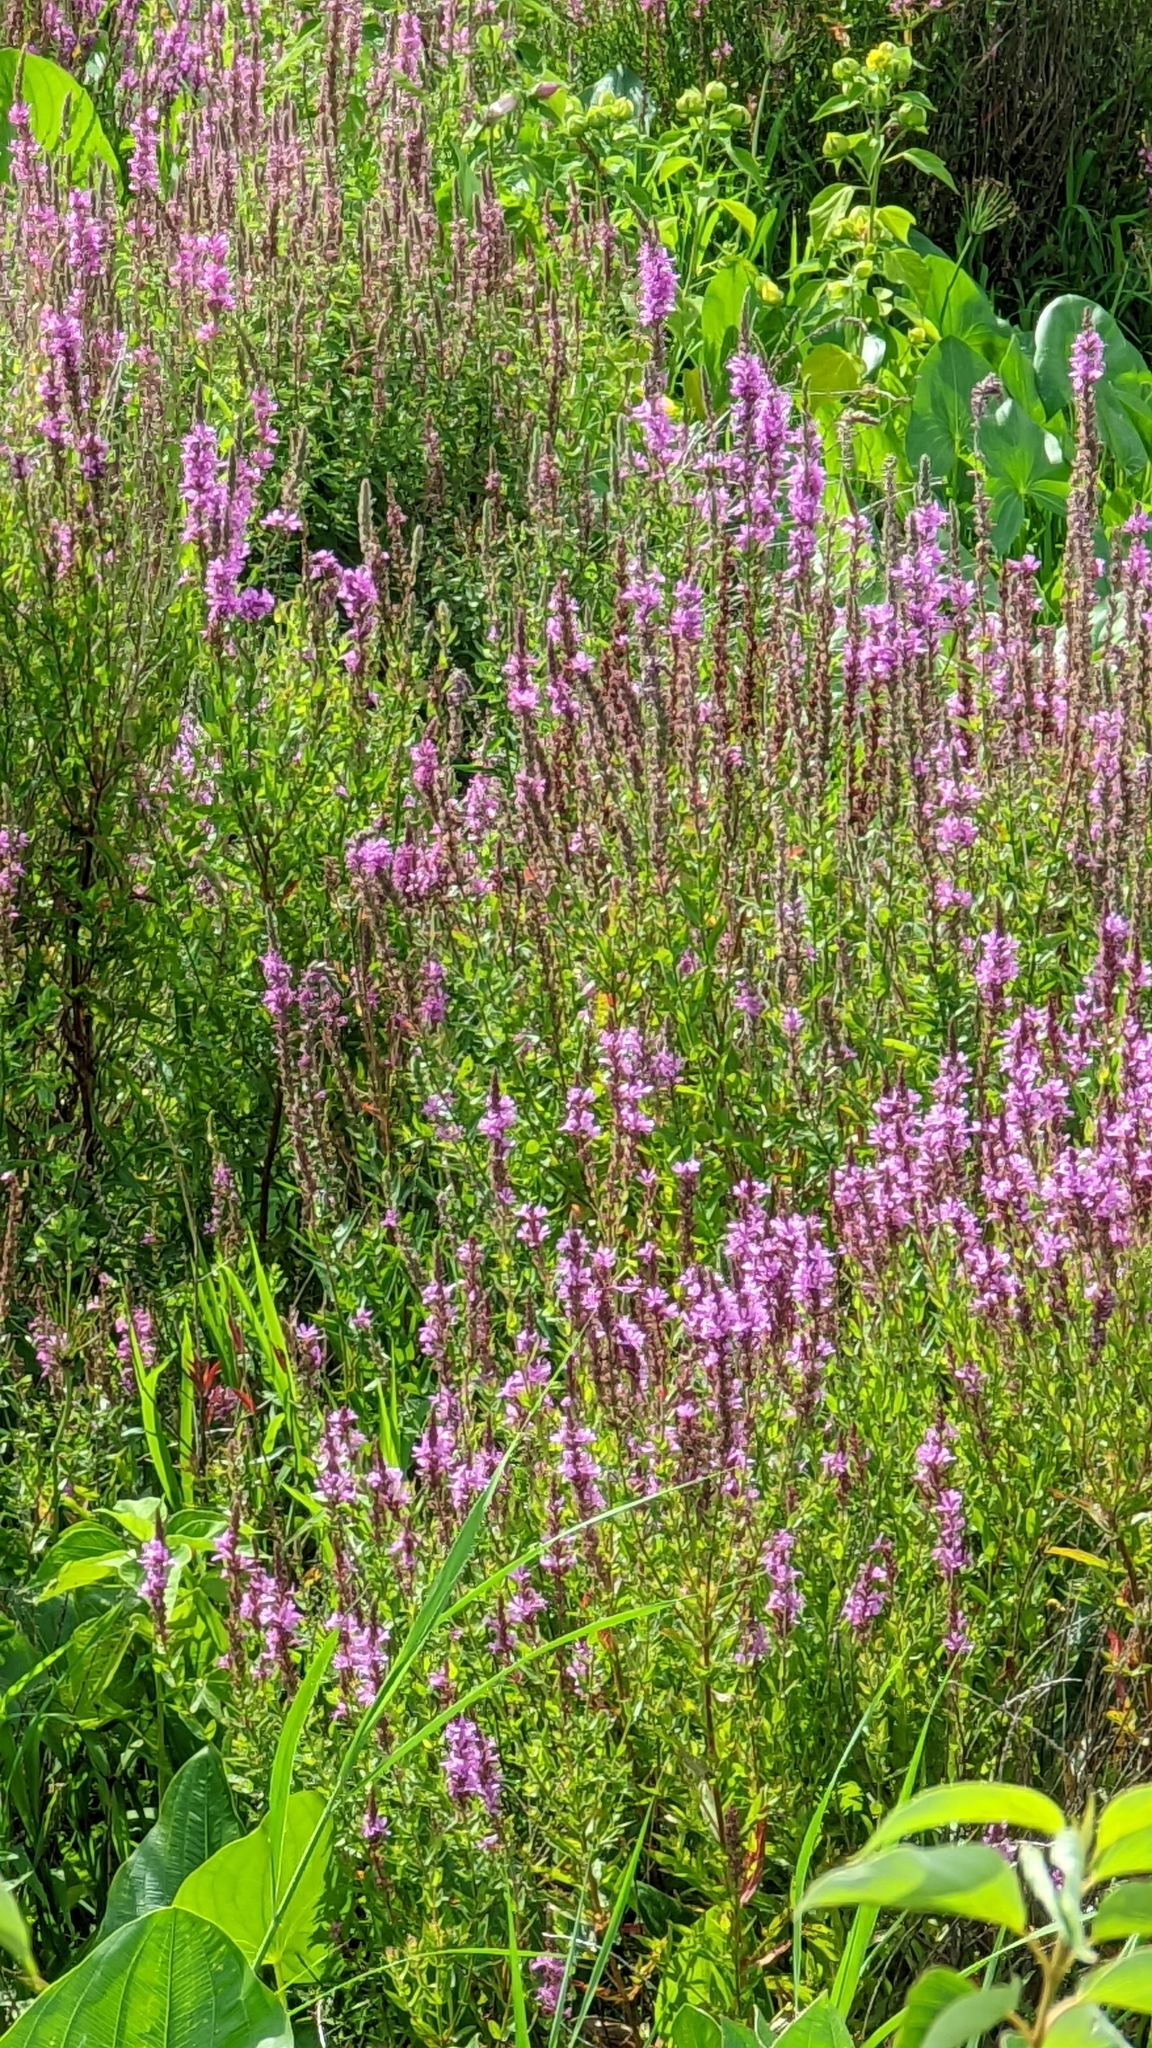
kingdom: Plantae
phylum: Tracheophyta
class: Magnoliopsida
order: Myrtales
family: Lythraceae
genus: Lythrum
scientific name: Lythrum salicaria
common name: Purple loosestrife
